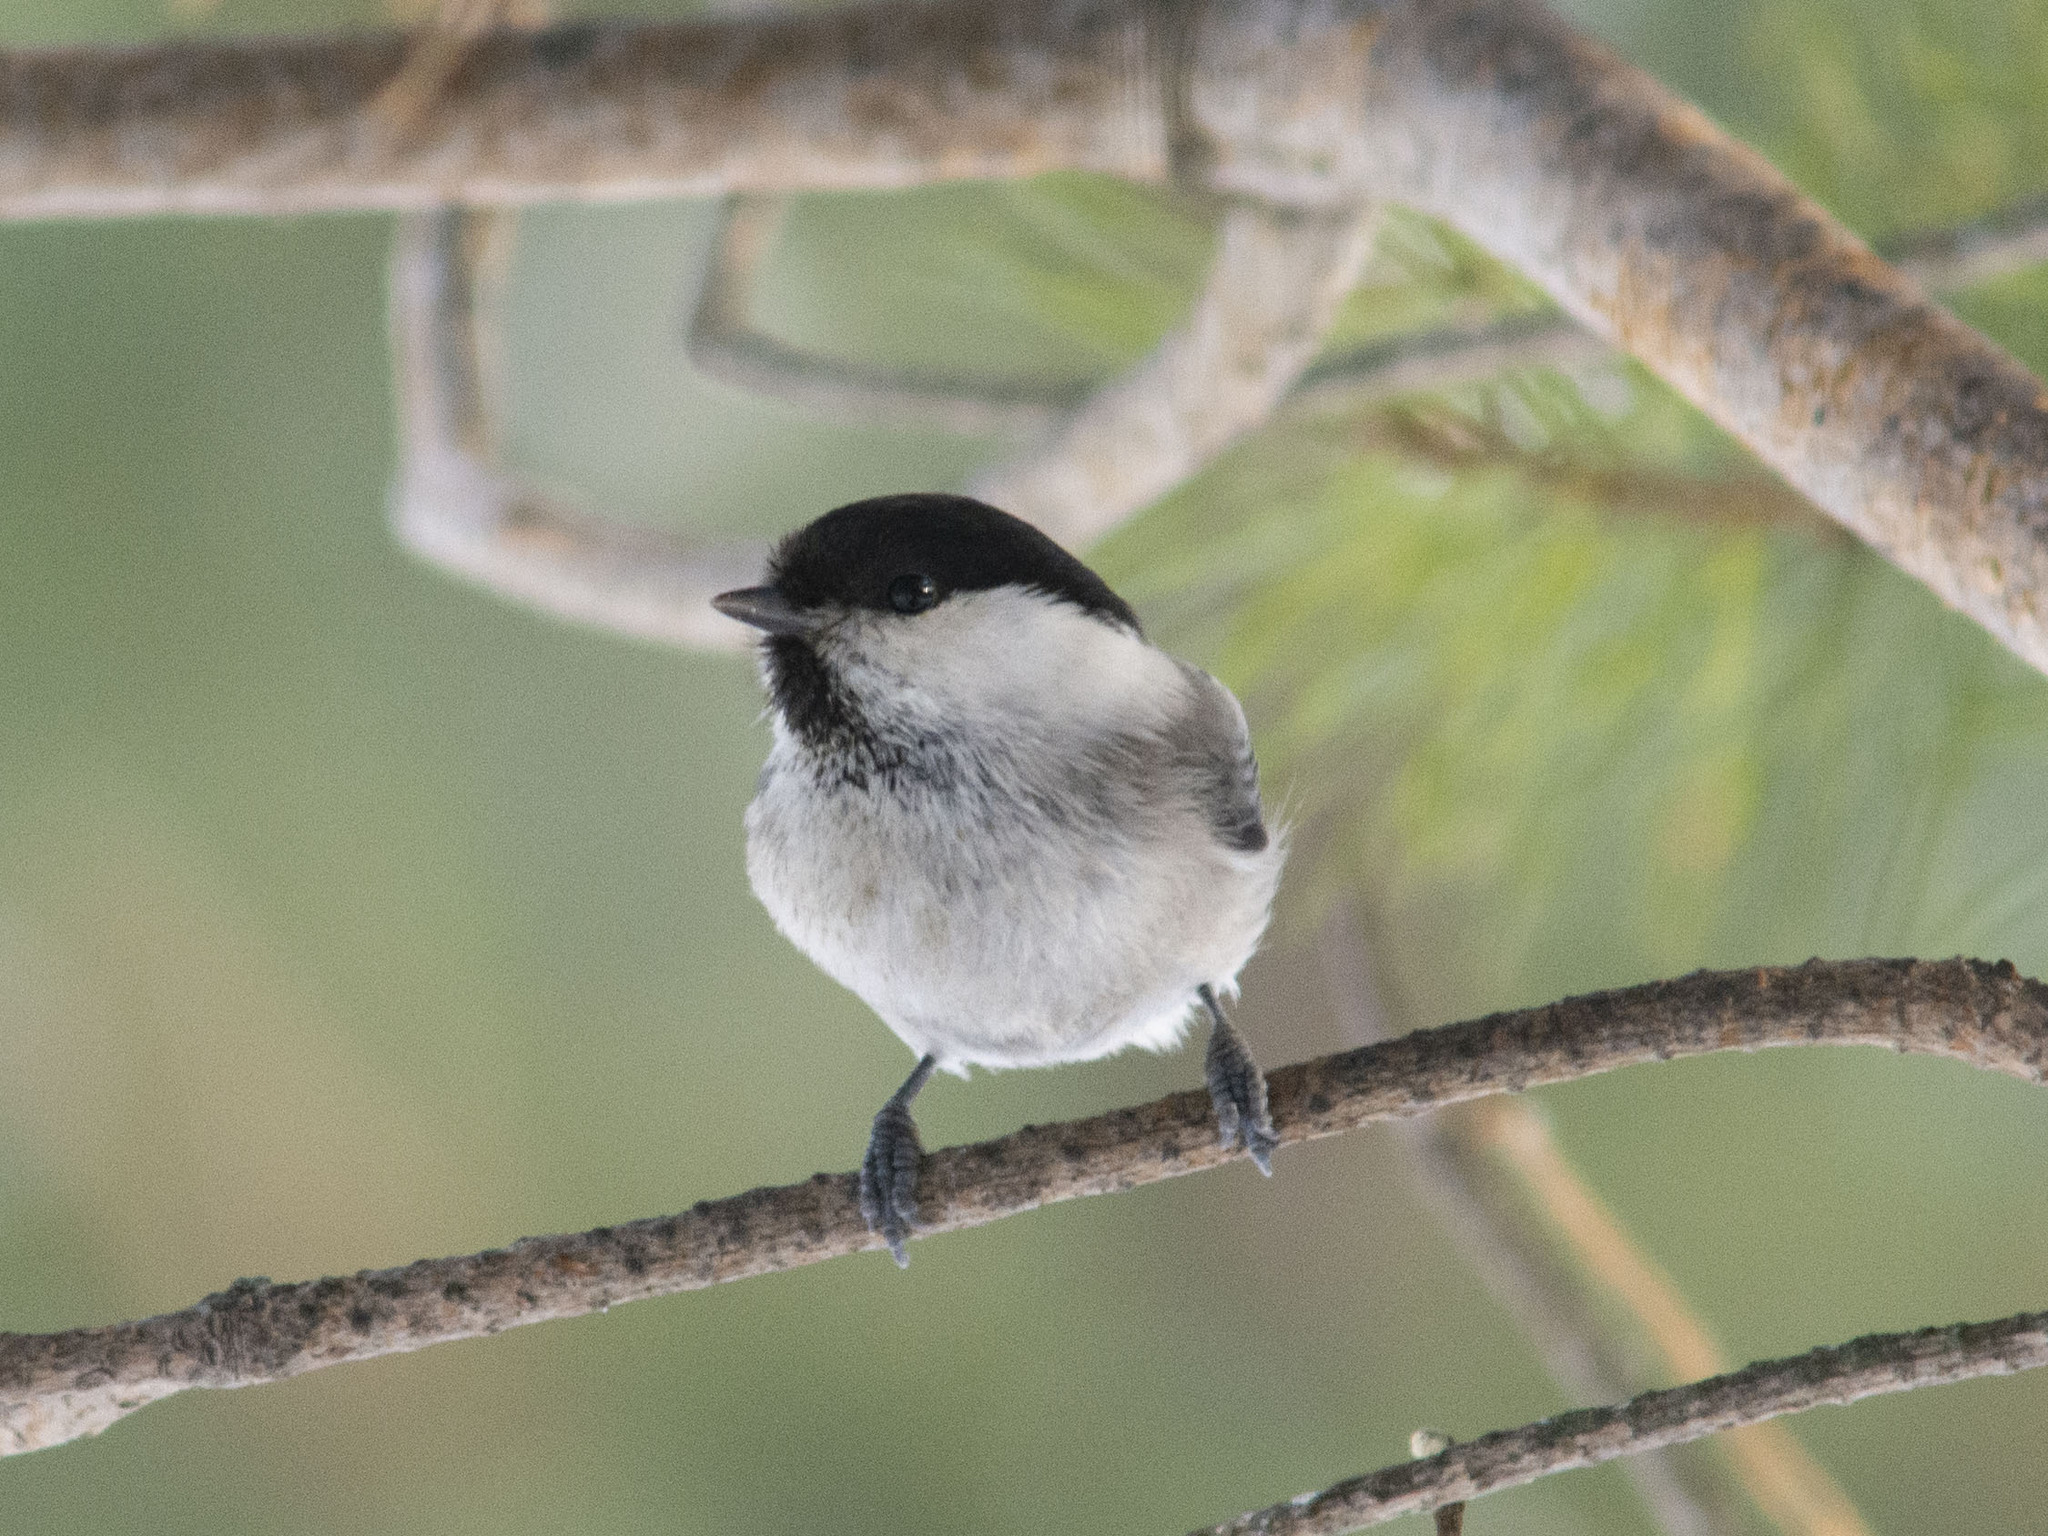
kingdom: Animalia
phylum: Chordata
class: Aves
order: Passeriformes
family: Paridae
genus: Poecile
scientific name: Poecile montanus
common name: Willow tit
